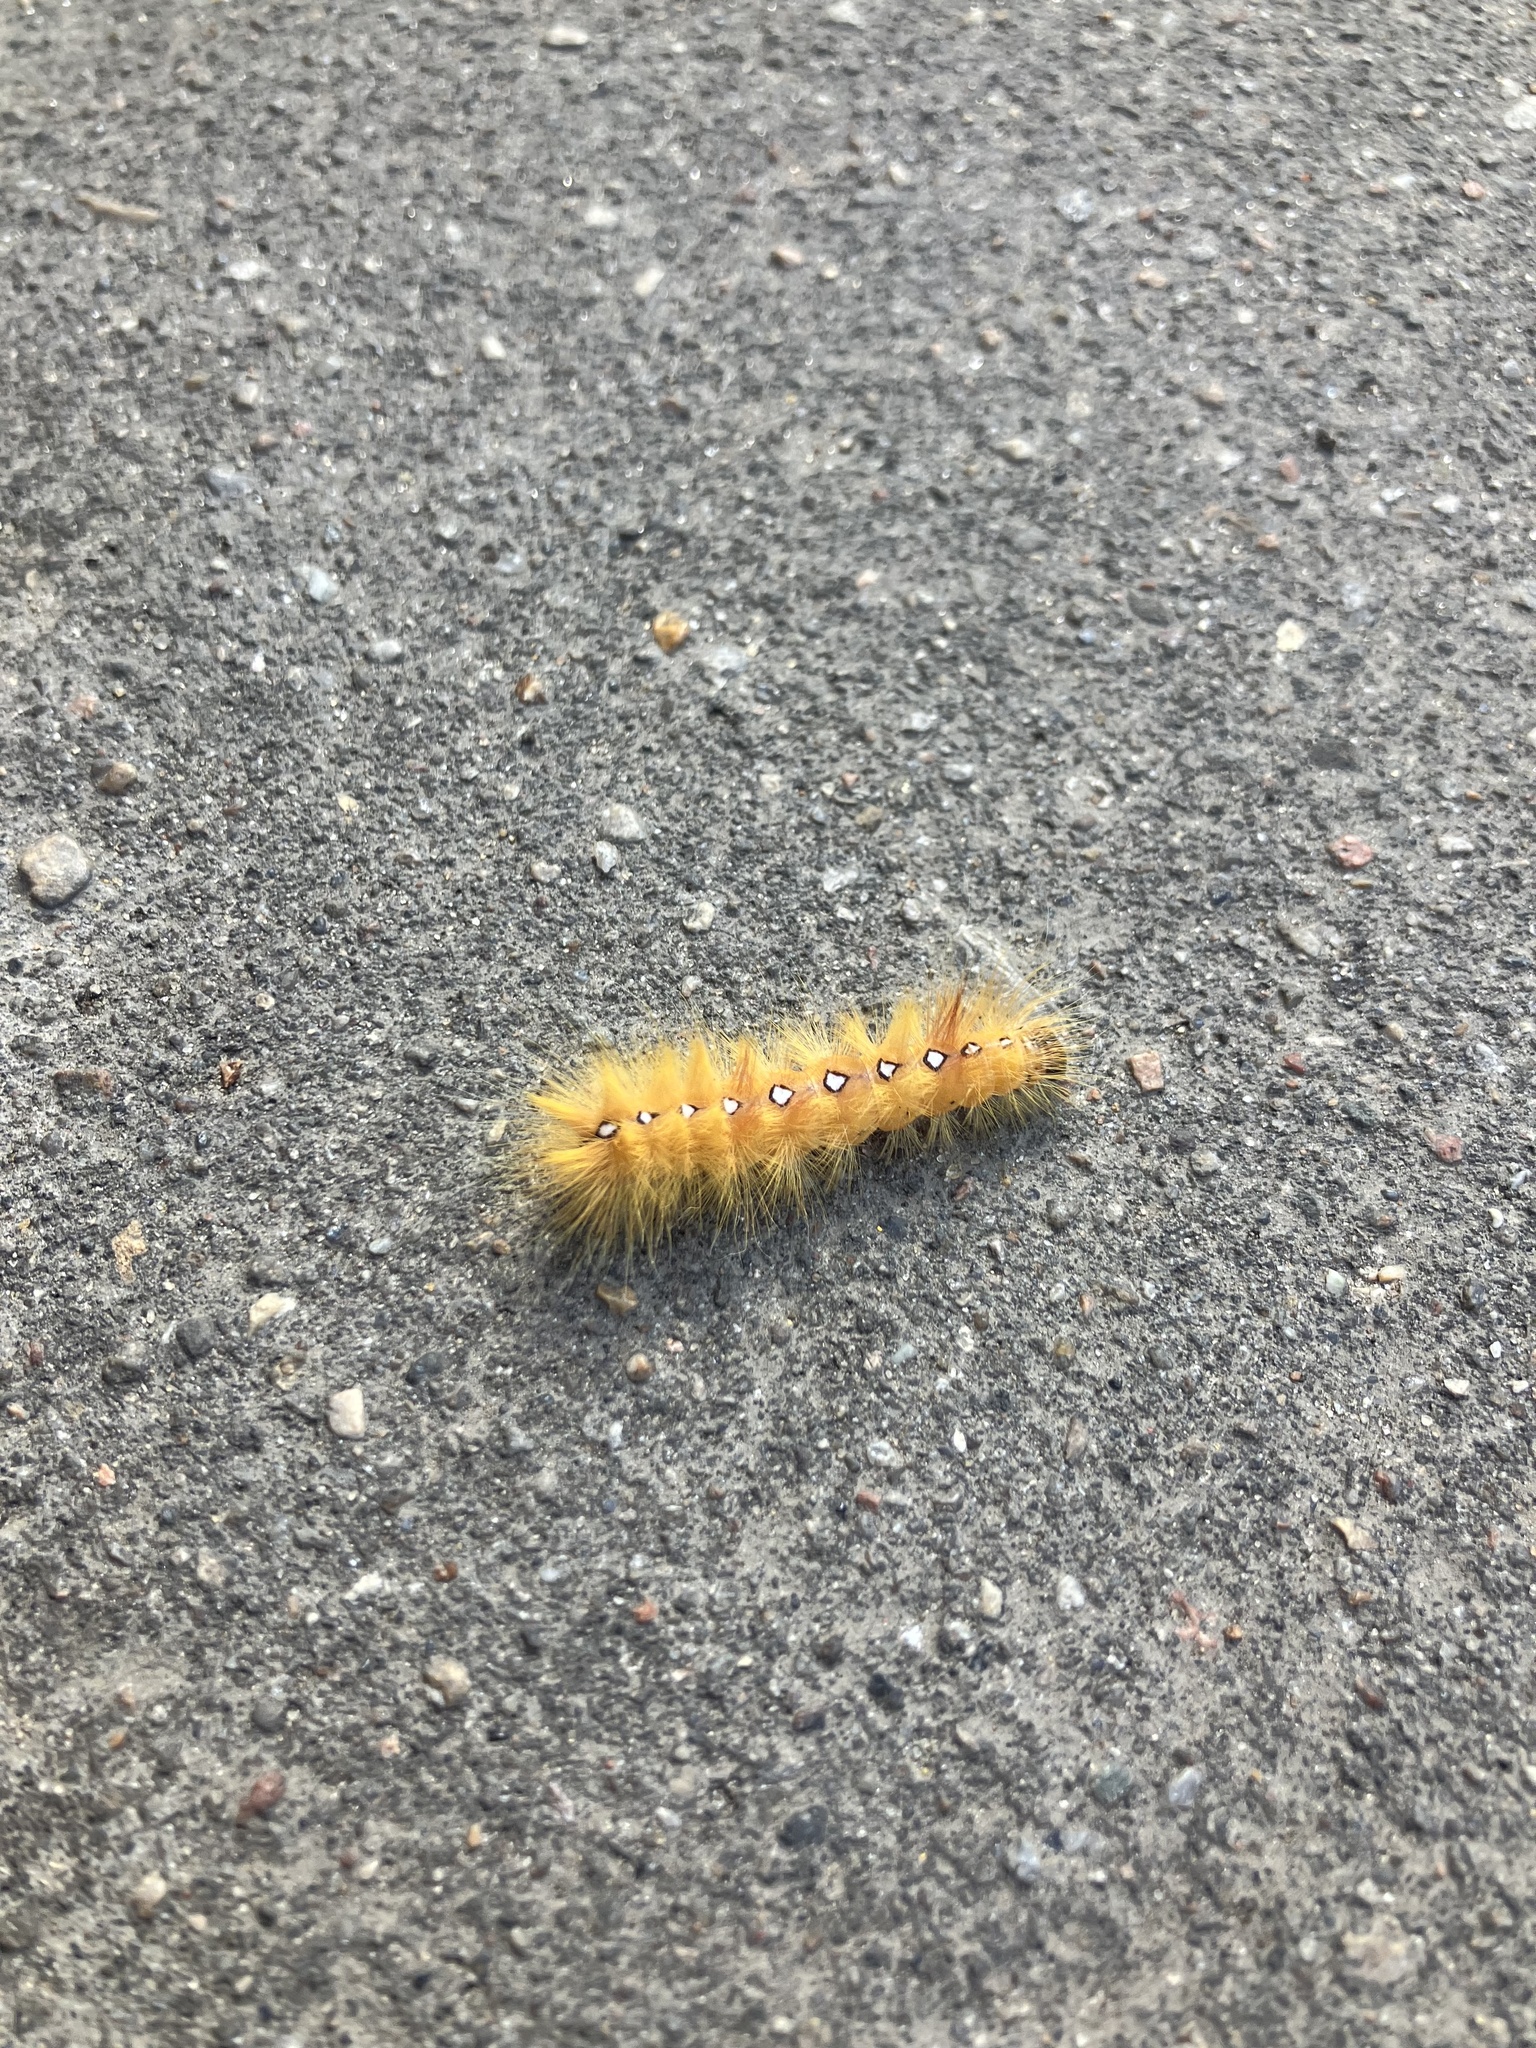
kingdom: Animalia
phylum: Arthropoda
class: Insecta
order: Lepidoptera
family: Noctuidae
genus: Acronicta
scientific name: Acronicta aceris
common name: Sycamore
